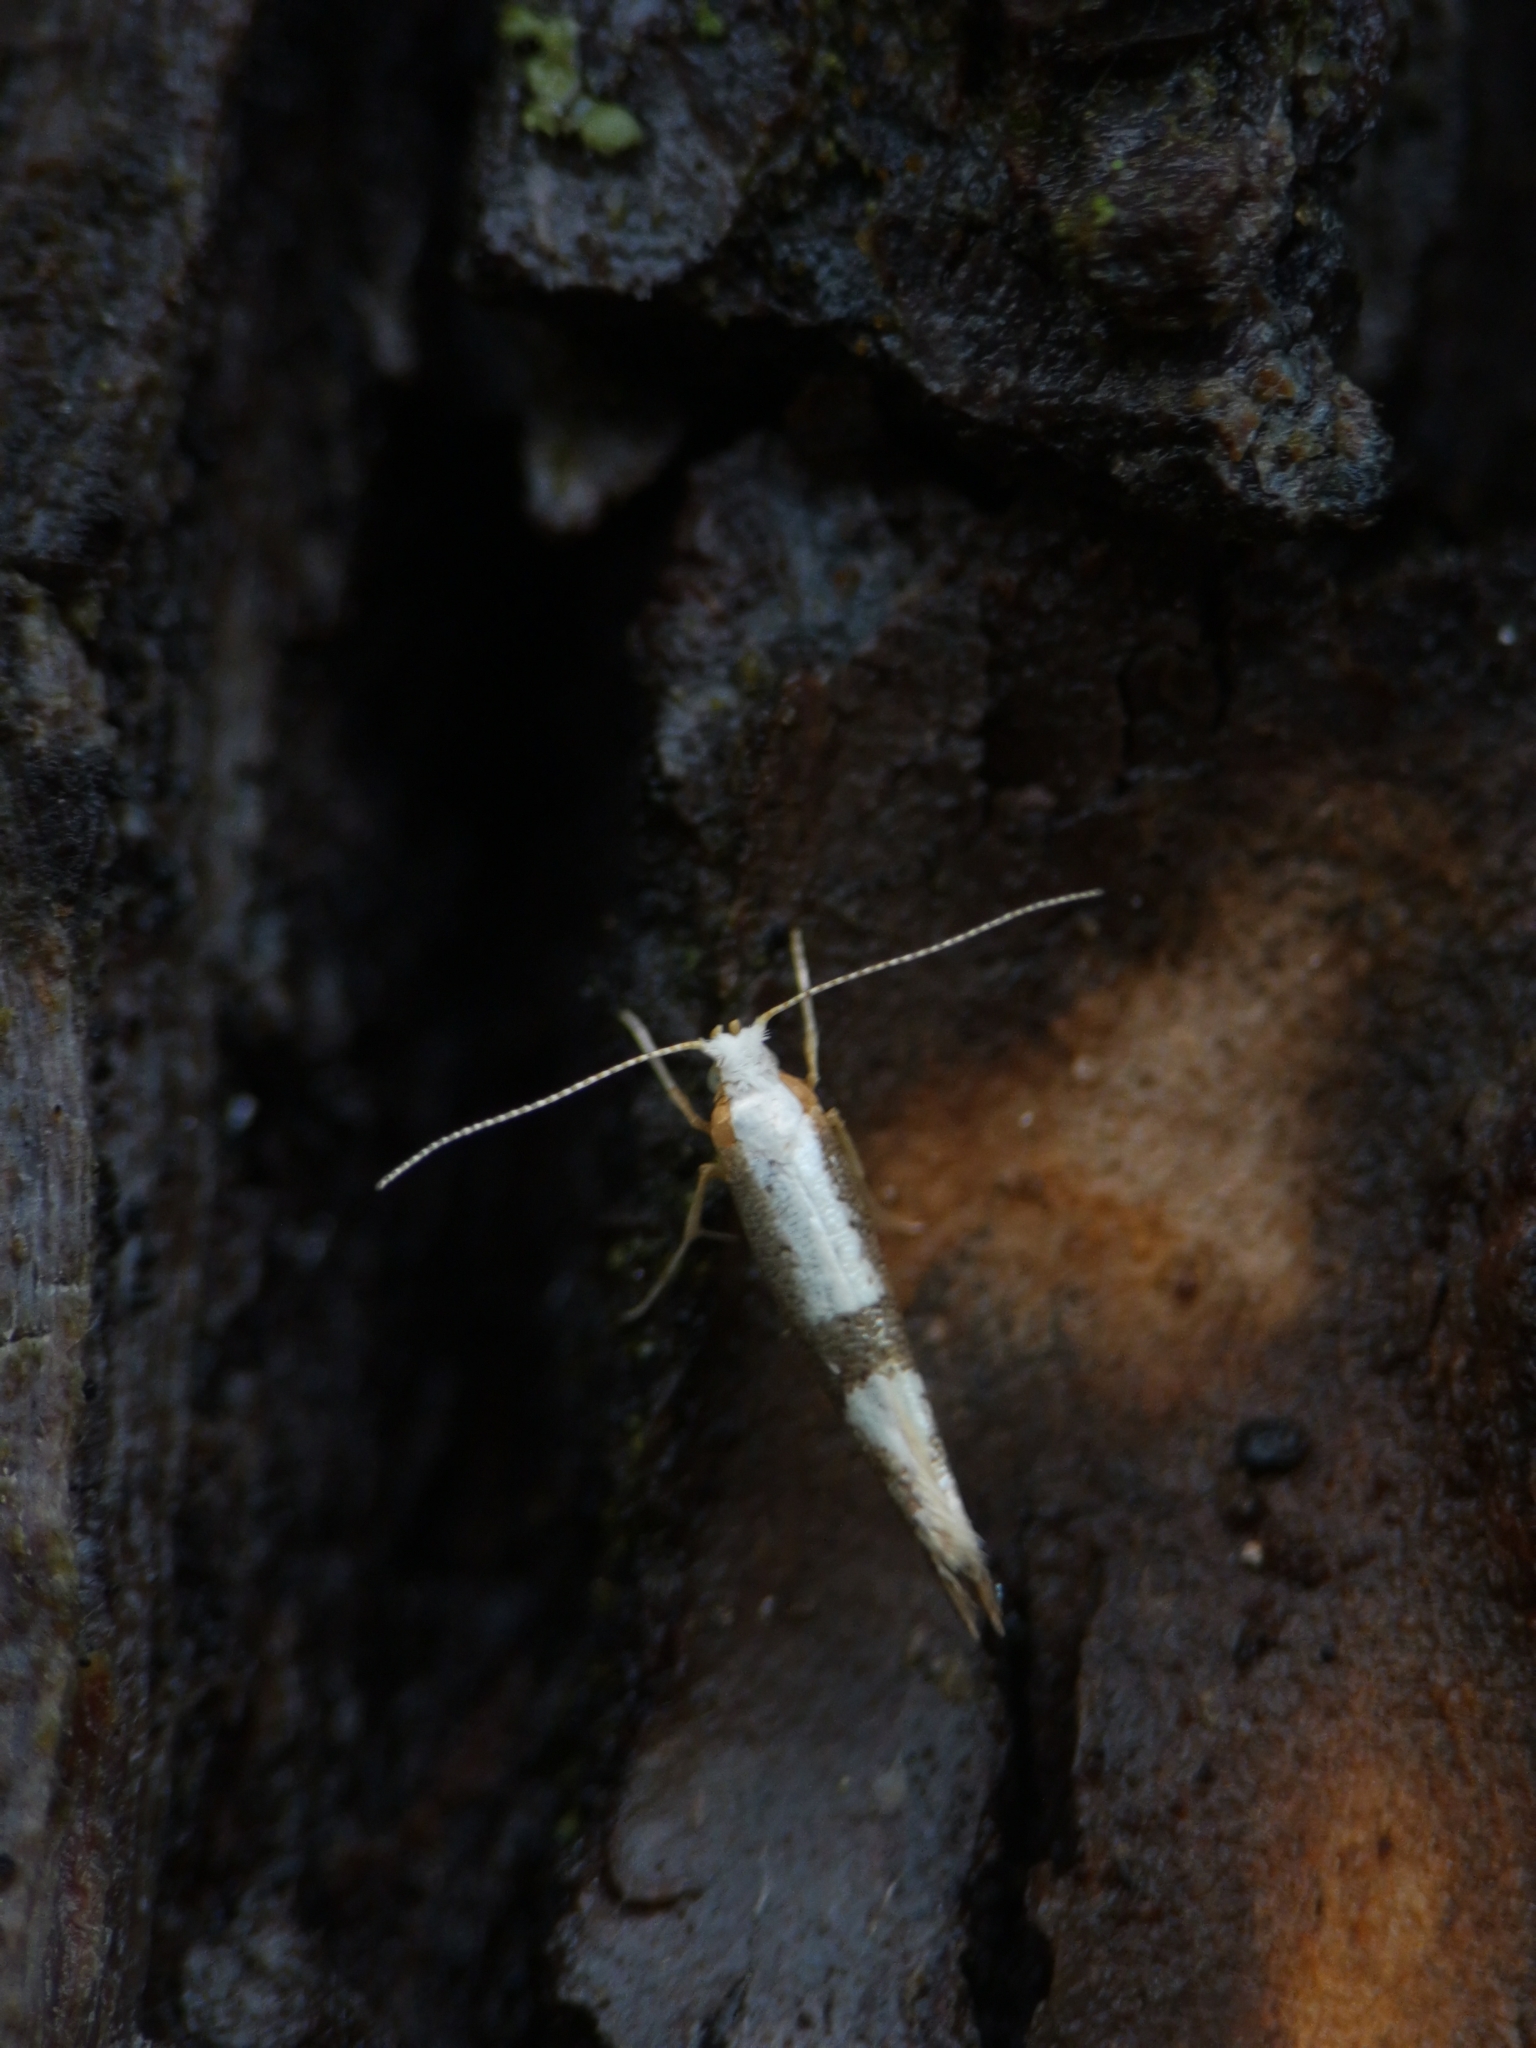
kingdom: Animalia
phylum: Arthropoda
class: Insecta
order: Lepidoptera
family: Argyresthiidae
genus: Argyresthia
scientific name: Argyresthia spinosella
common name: Blackthorn argent
